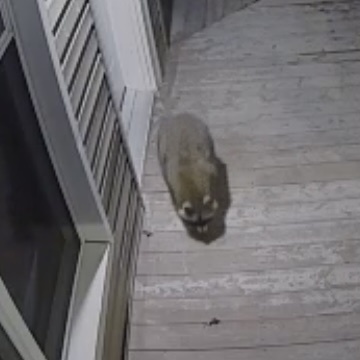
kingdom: Animalia
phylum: Chordata
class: Mammalia
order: Carnivora
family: Procyonidae
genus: Procyon
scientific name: Procyon lotor
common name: Raccoon
